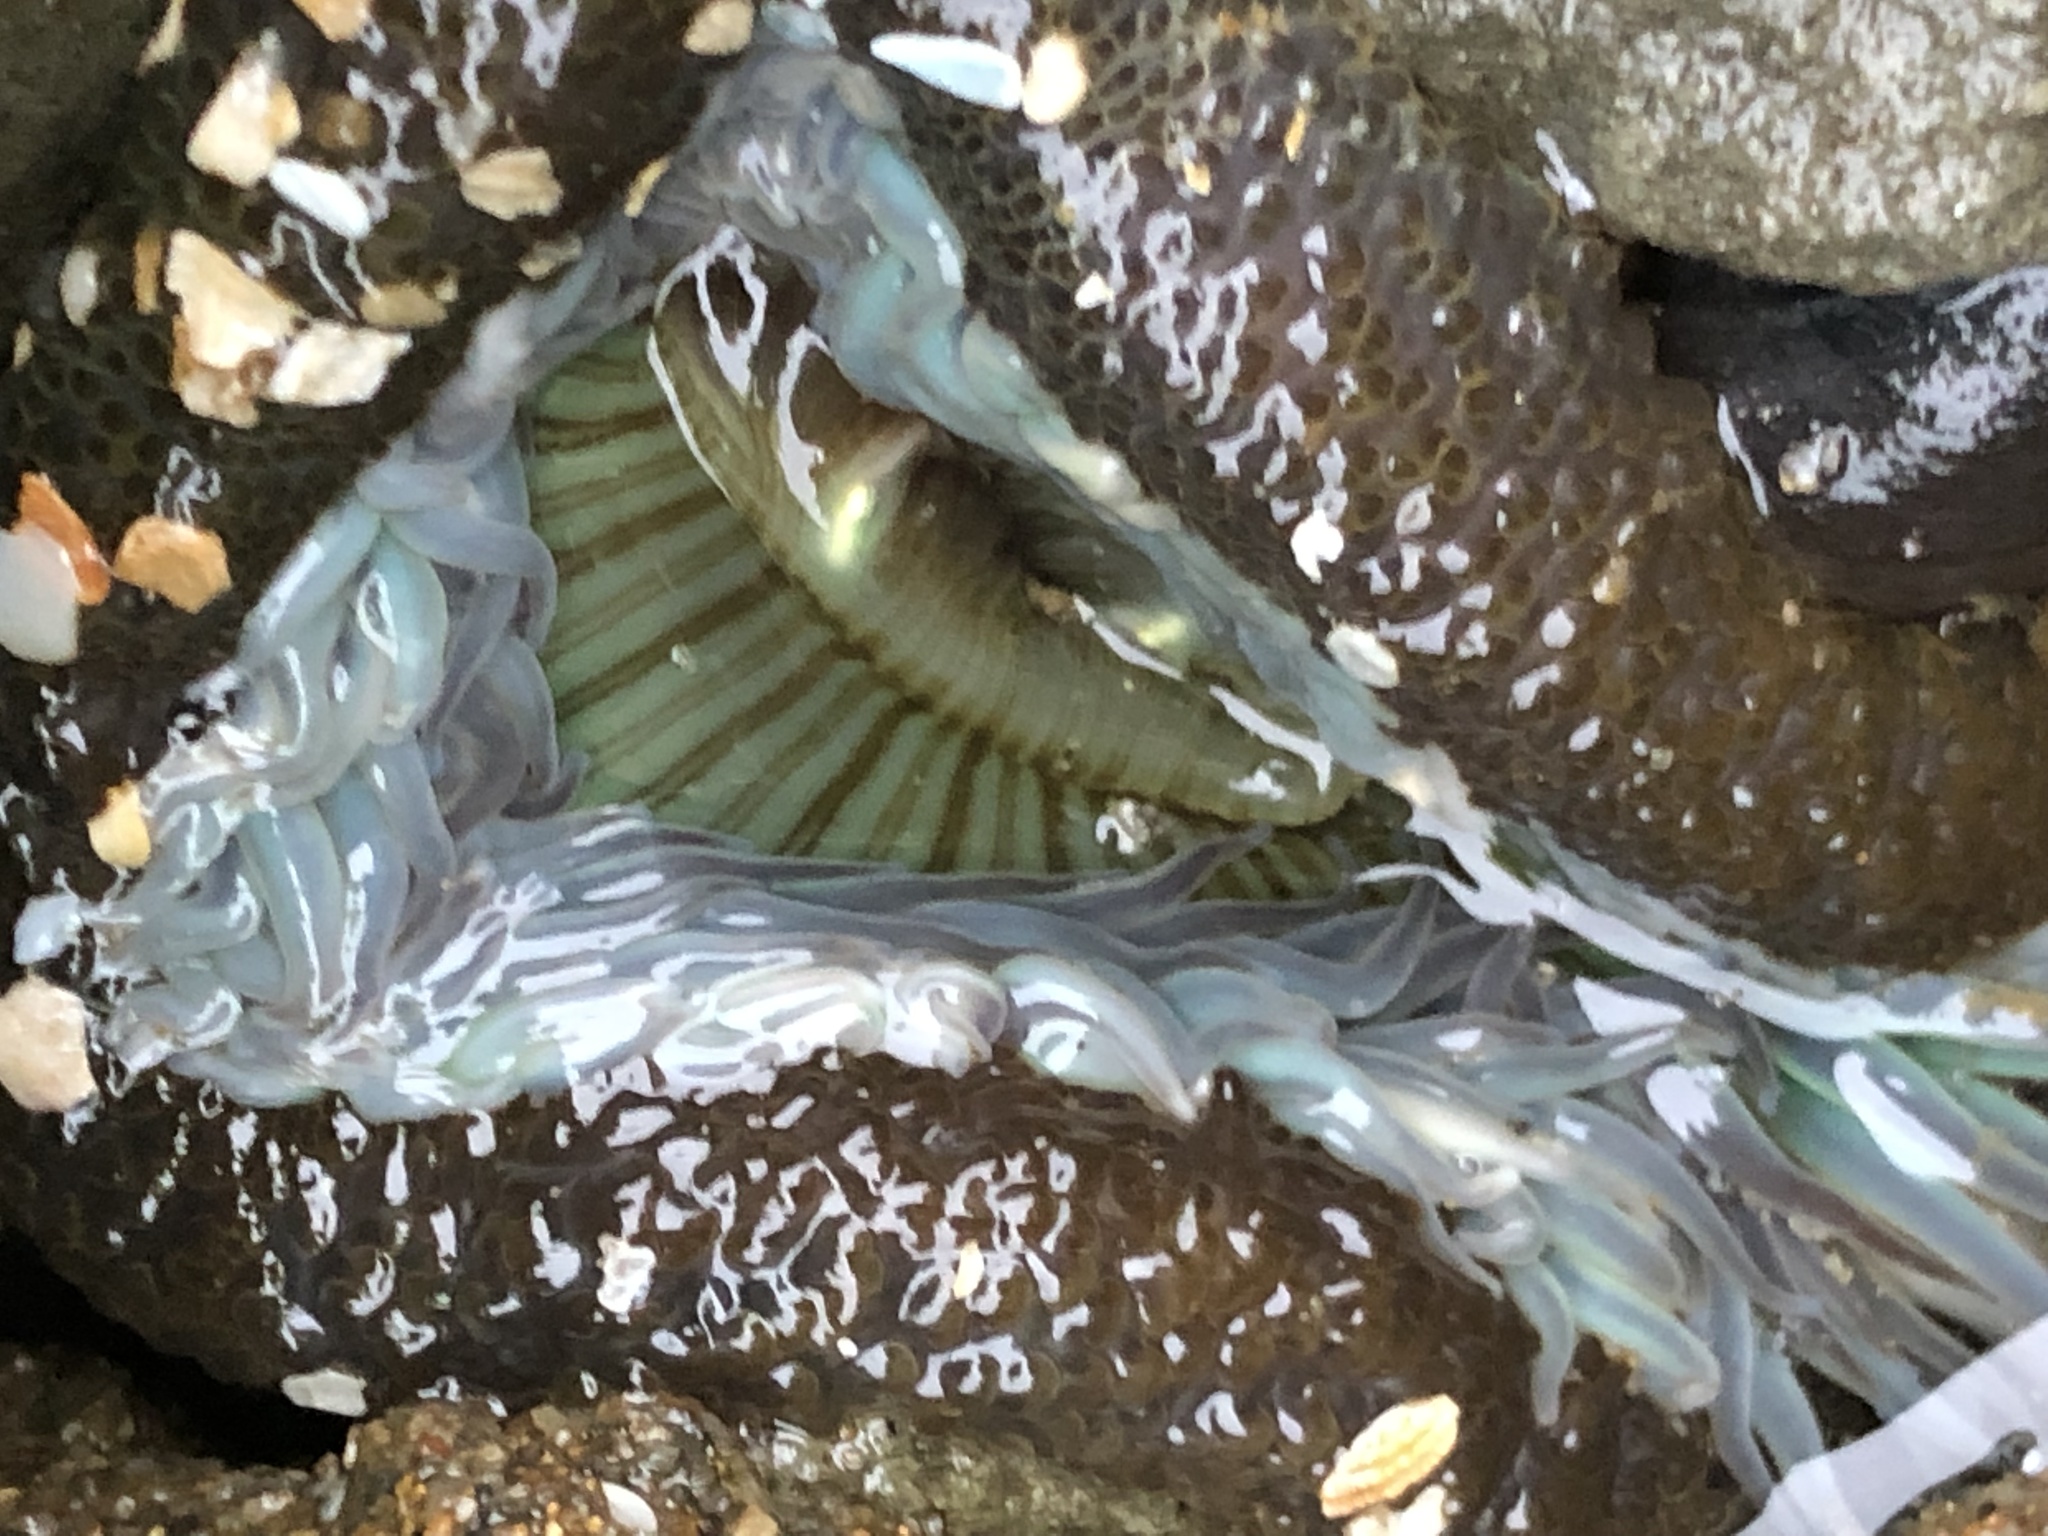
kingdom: Animalia
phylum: Cnidaria
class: Anthozoa
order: Actiniaria
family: Actiniidae
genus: Anthopleura
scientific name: Anthopleura sola
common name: Sun anemone
